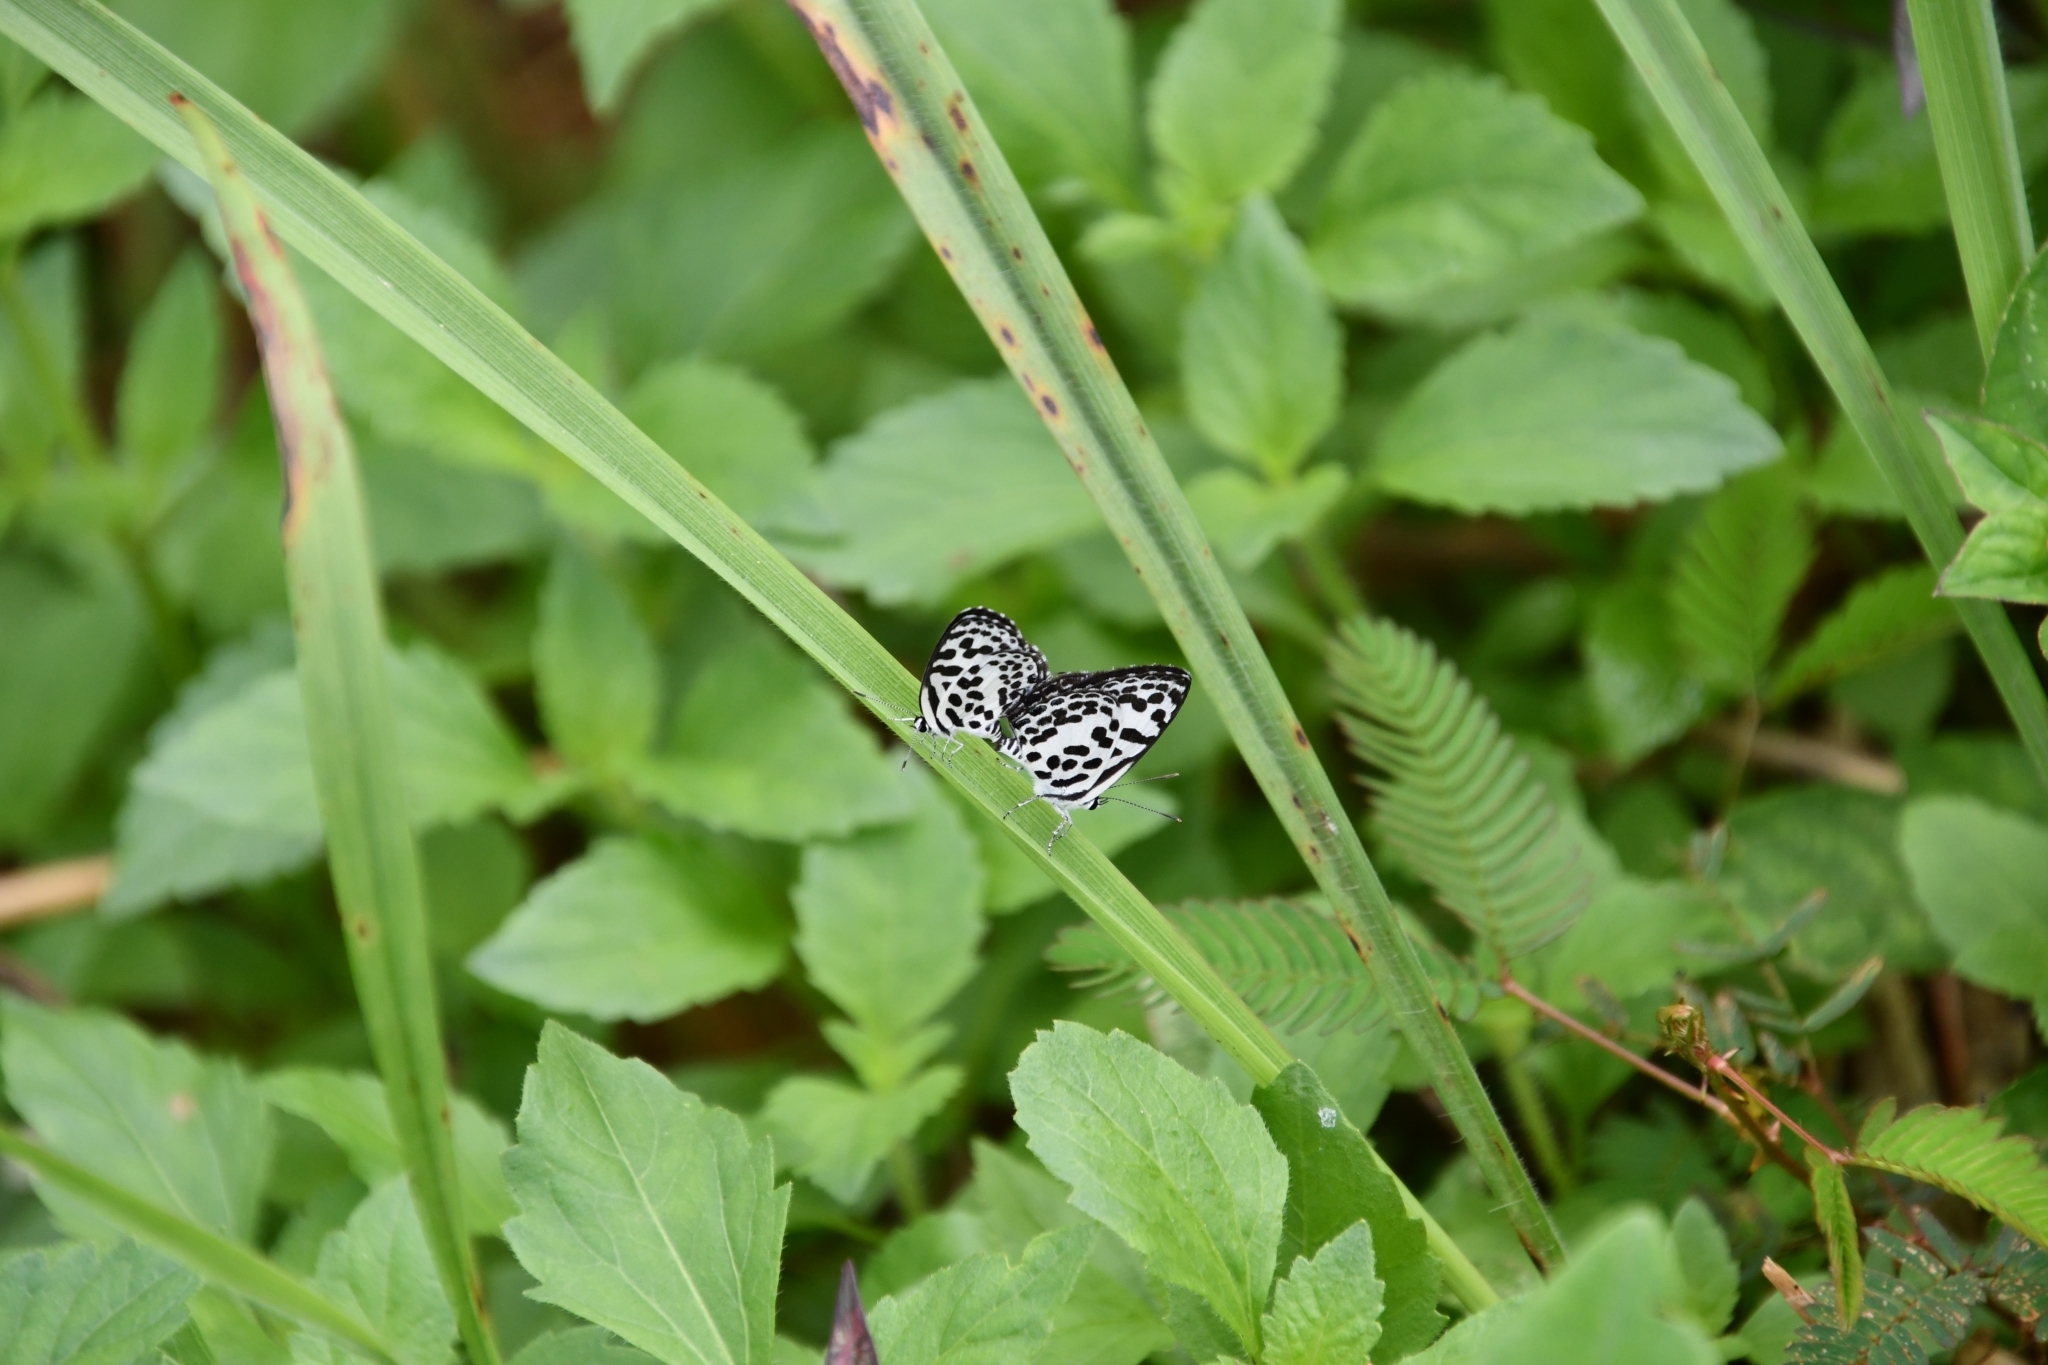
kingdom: Animalia
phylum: Arthropoda
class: Insecta
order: Lepidoptera
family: Lycaenidae
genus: Castalius
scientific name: Castalius rosimon
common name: Common pierrot
